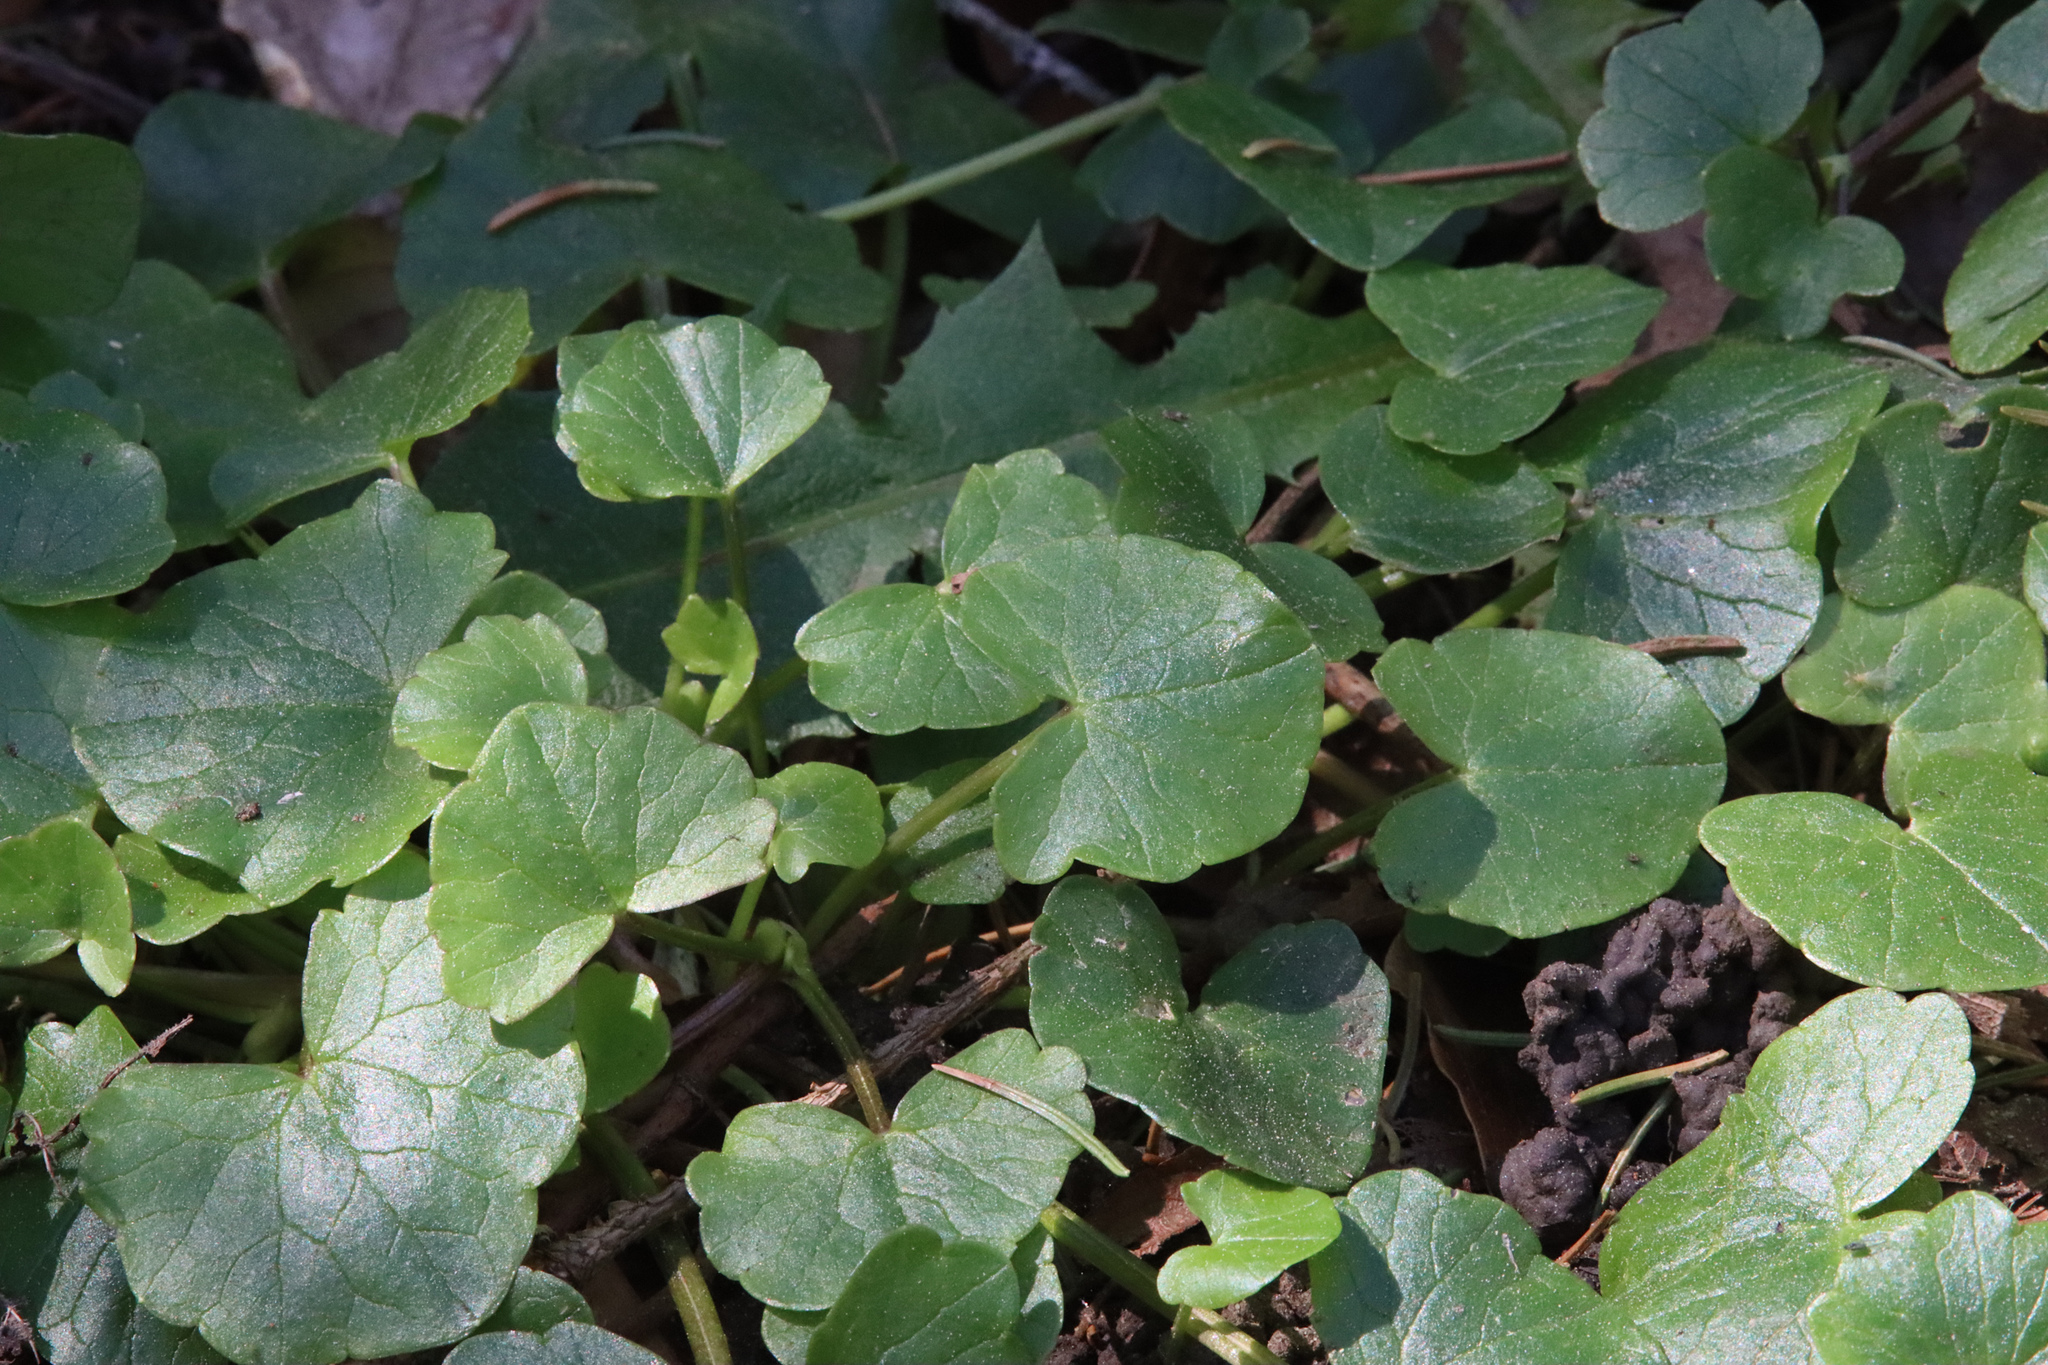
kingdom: Plantae
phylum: Tracheophyta
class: Magnoliopsida
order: Ranunculales
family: Ranunculaceae
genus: Ficaria
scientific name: Ficaria verna
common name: Lesser celandine
